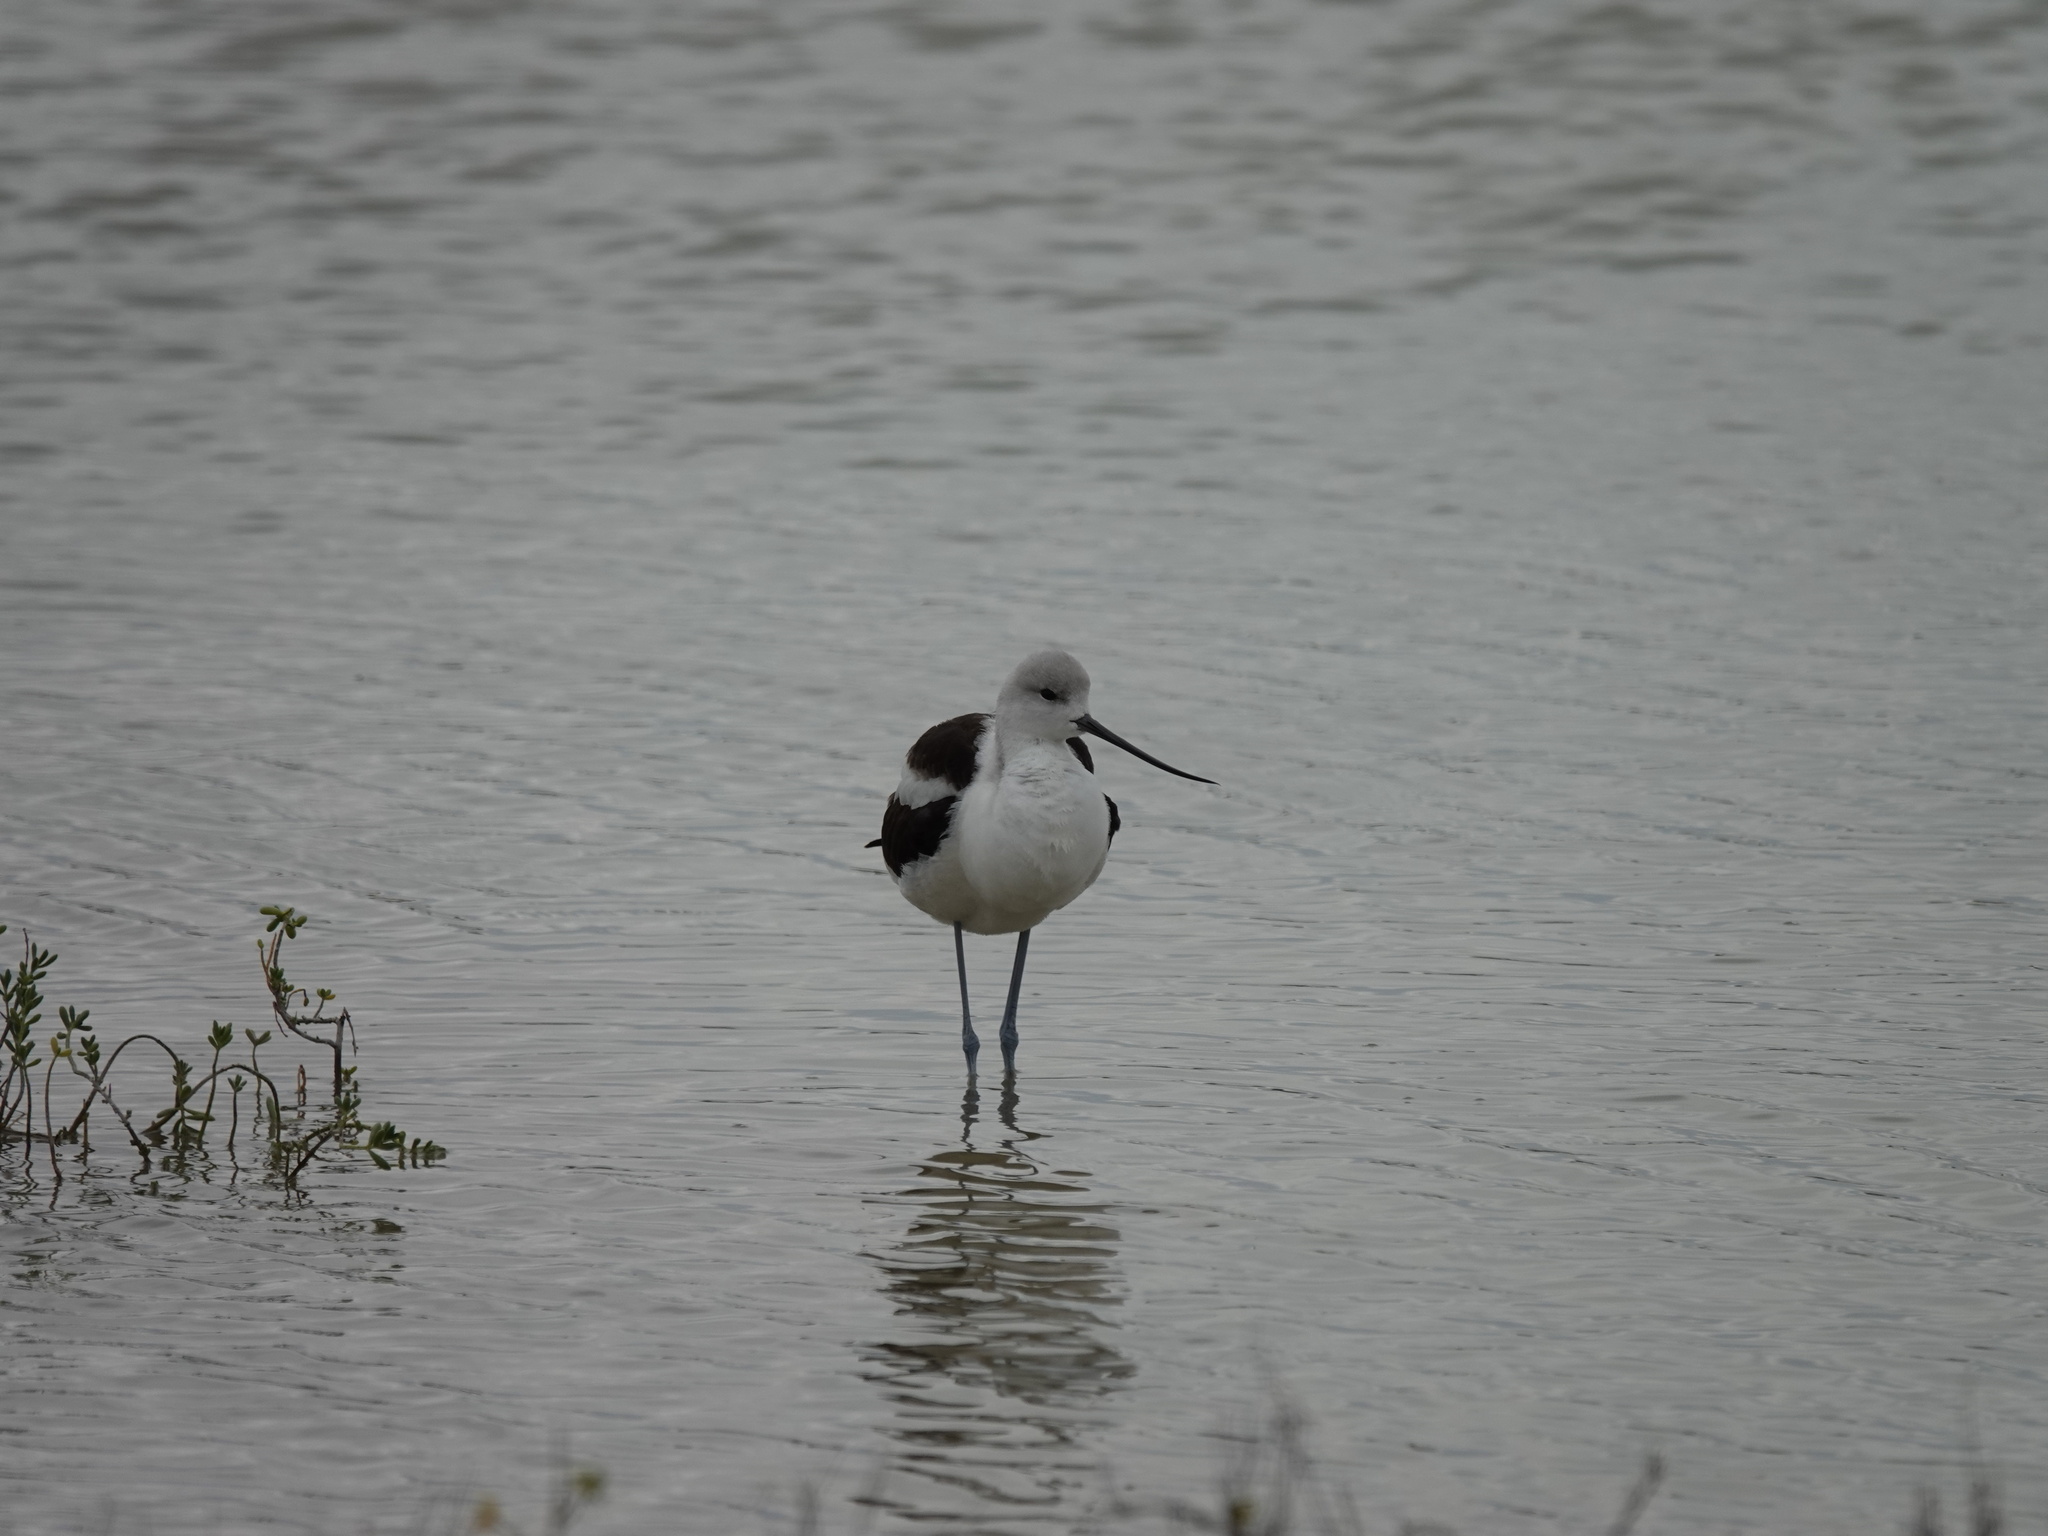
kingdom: Animalia
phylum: Chordata
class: Aves
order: Charadriiformes
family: Recurvirostridae
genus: Recurvirostra
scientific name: Recurvirostra americana
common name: American avocet
